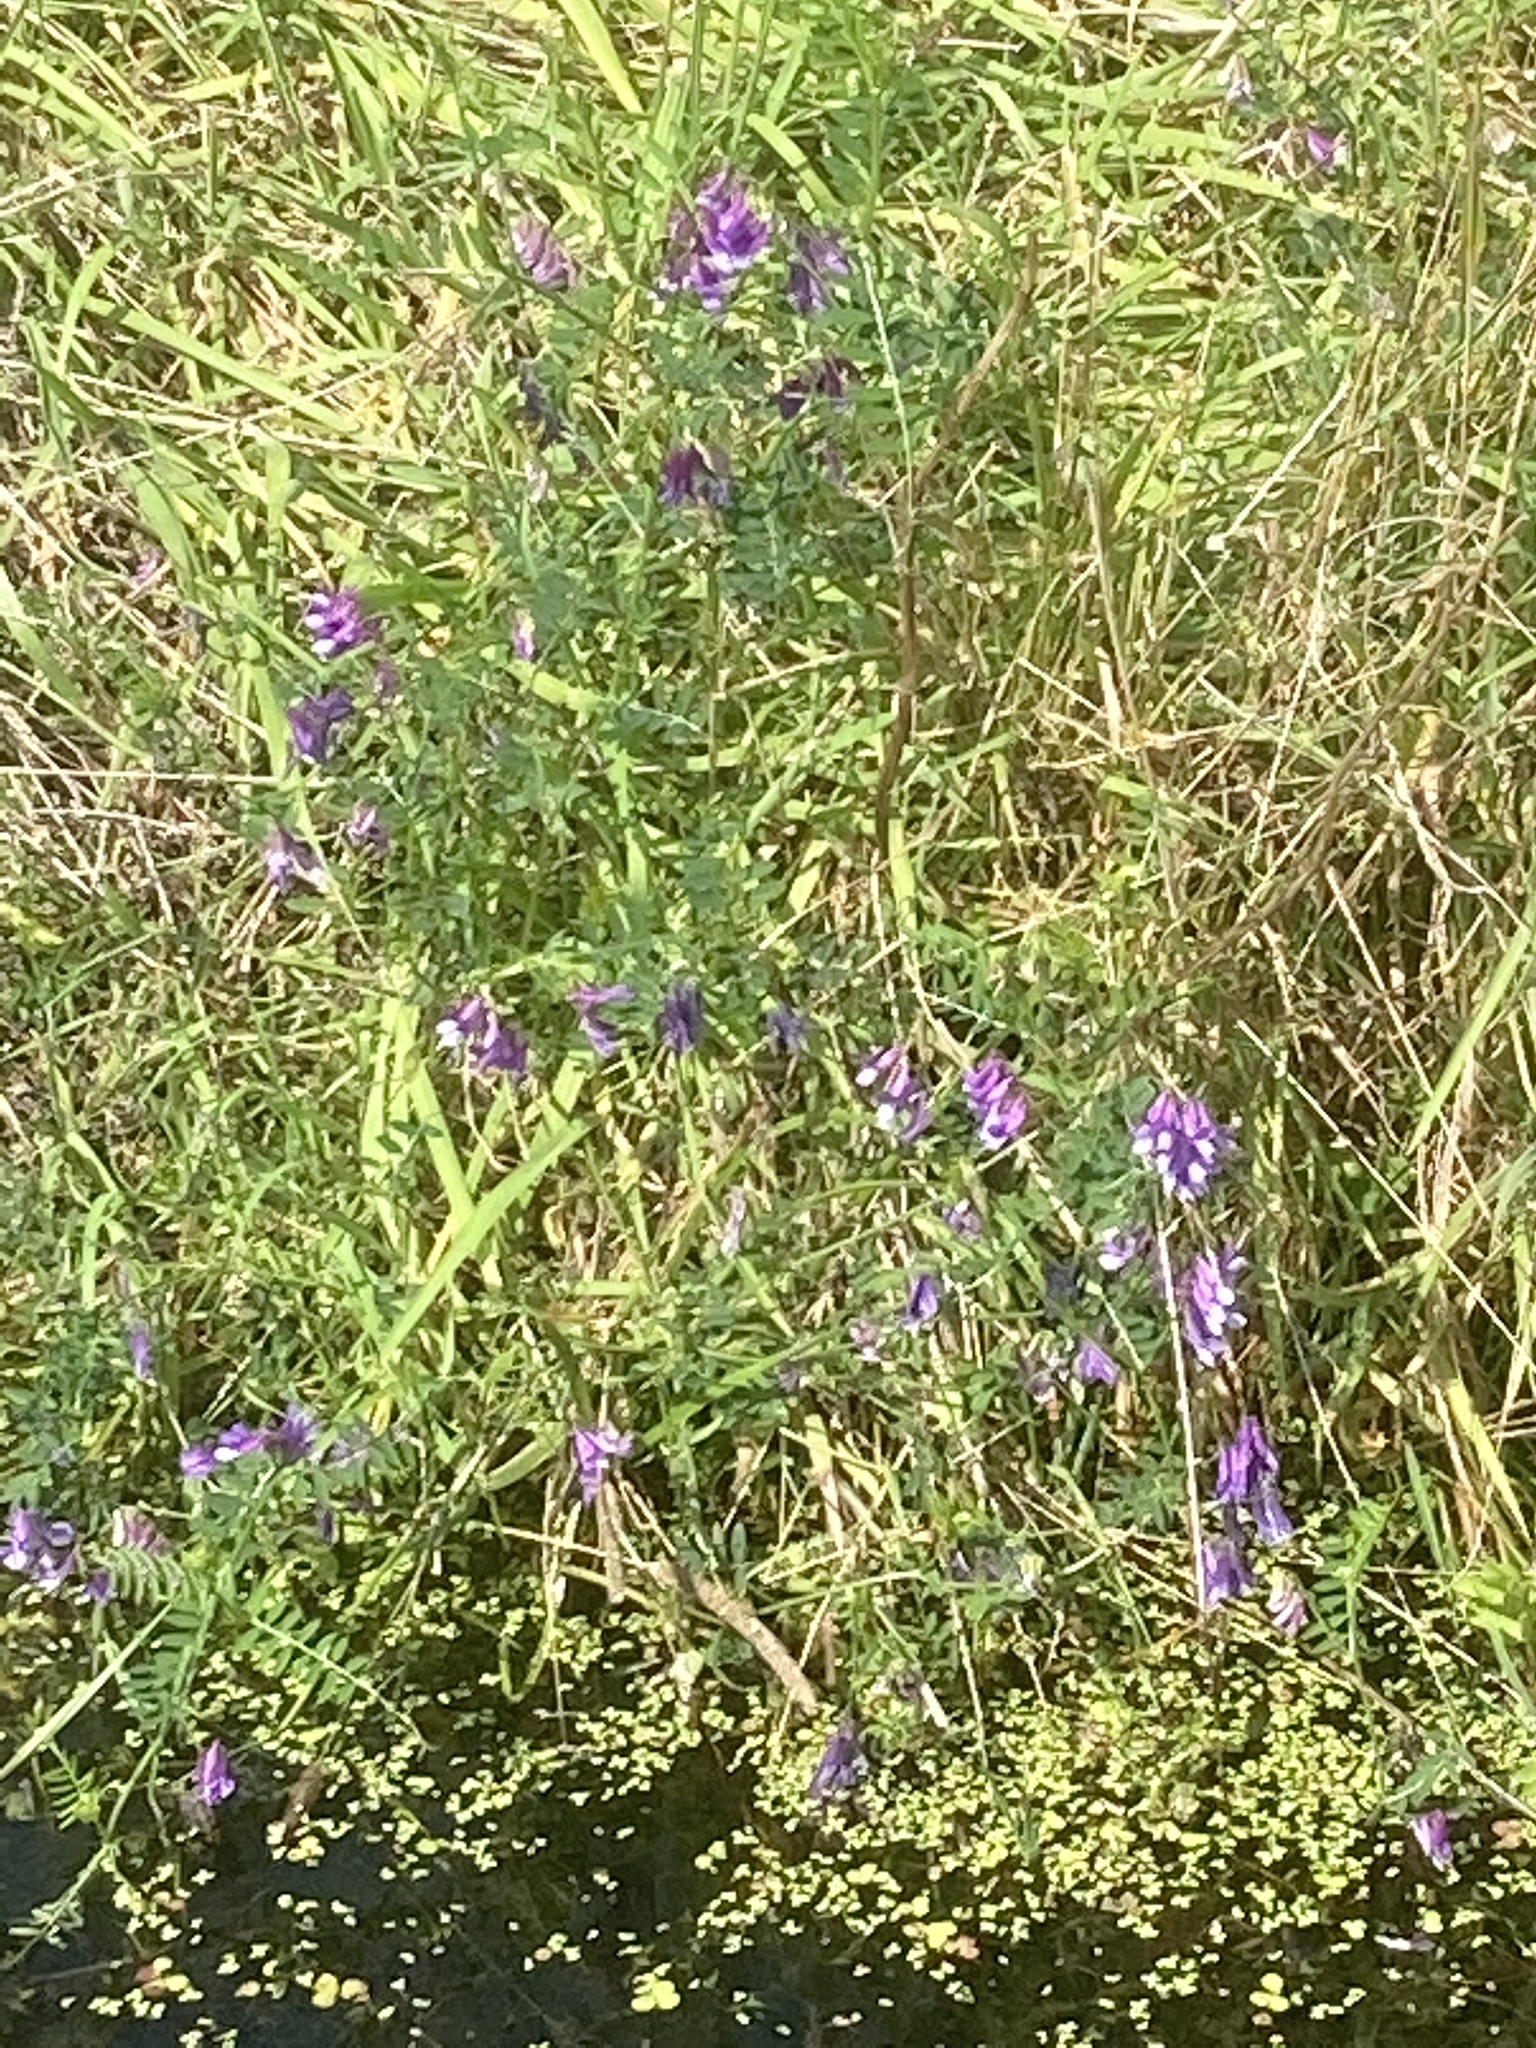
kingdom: Plantae
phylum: Tracheophyta
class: Magnoliopsida
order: Fabales
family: Fabaceae
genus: Vicia
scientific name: Vicia villosa
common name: Fodder vetch
